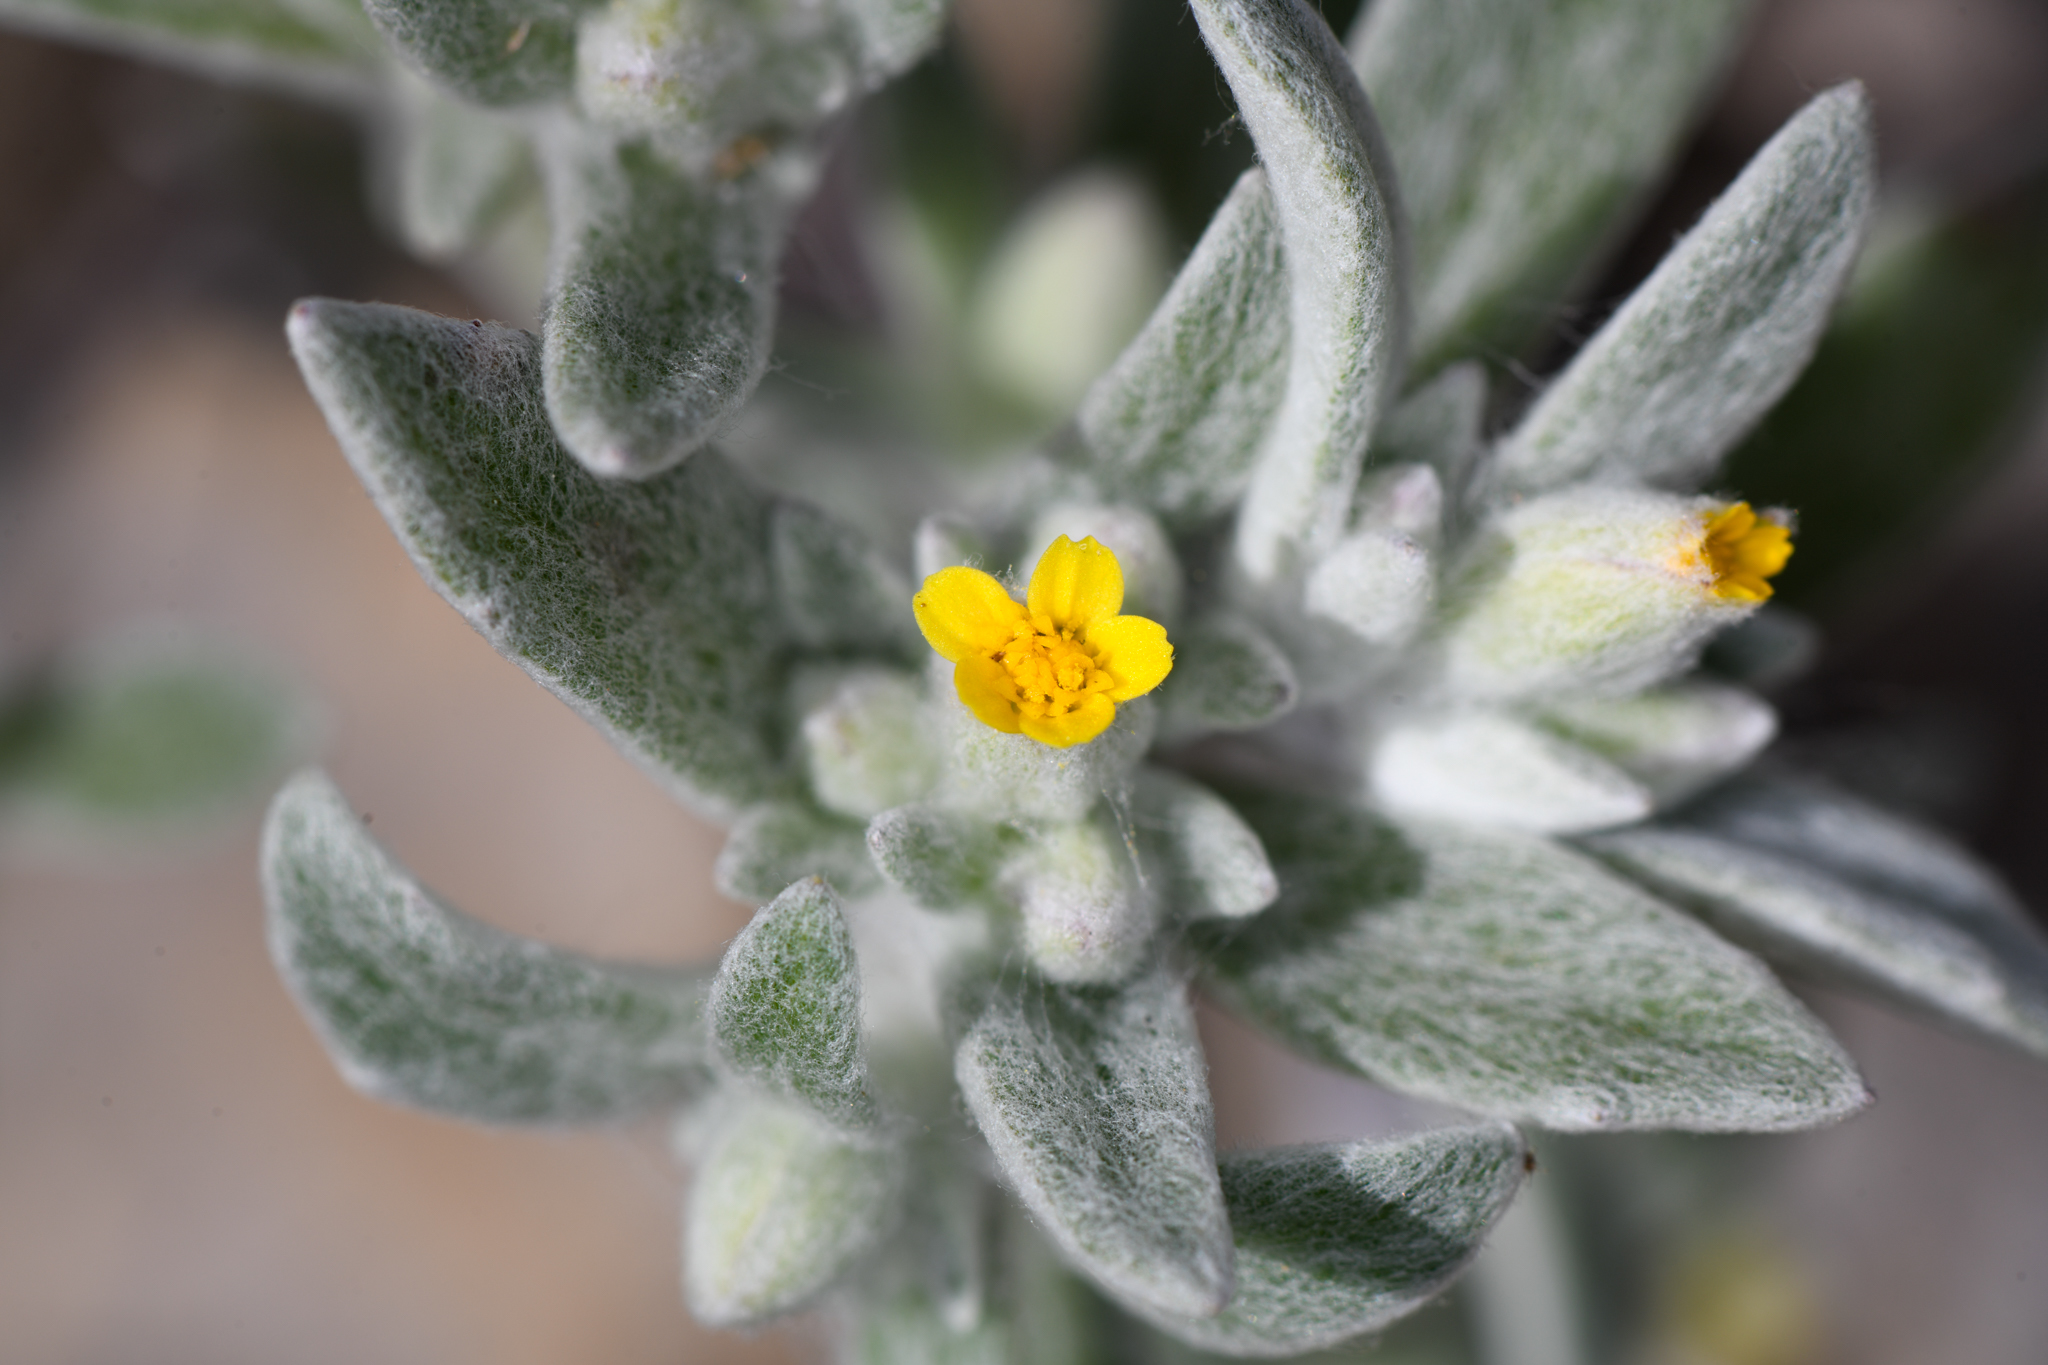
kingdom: Plantae
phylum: Tracheophyta
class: Magnoliopsida
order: Asterales
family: Asteraceae
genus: Eriophyllum
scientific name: Eriophyllum nubigenum
